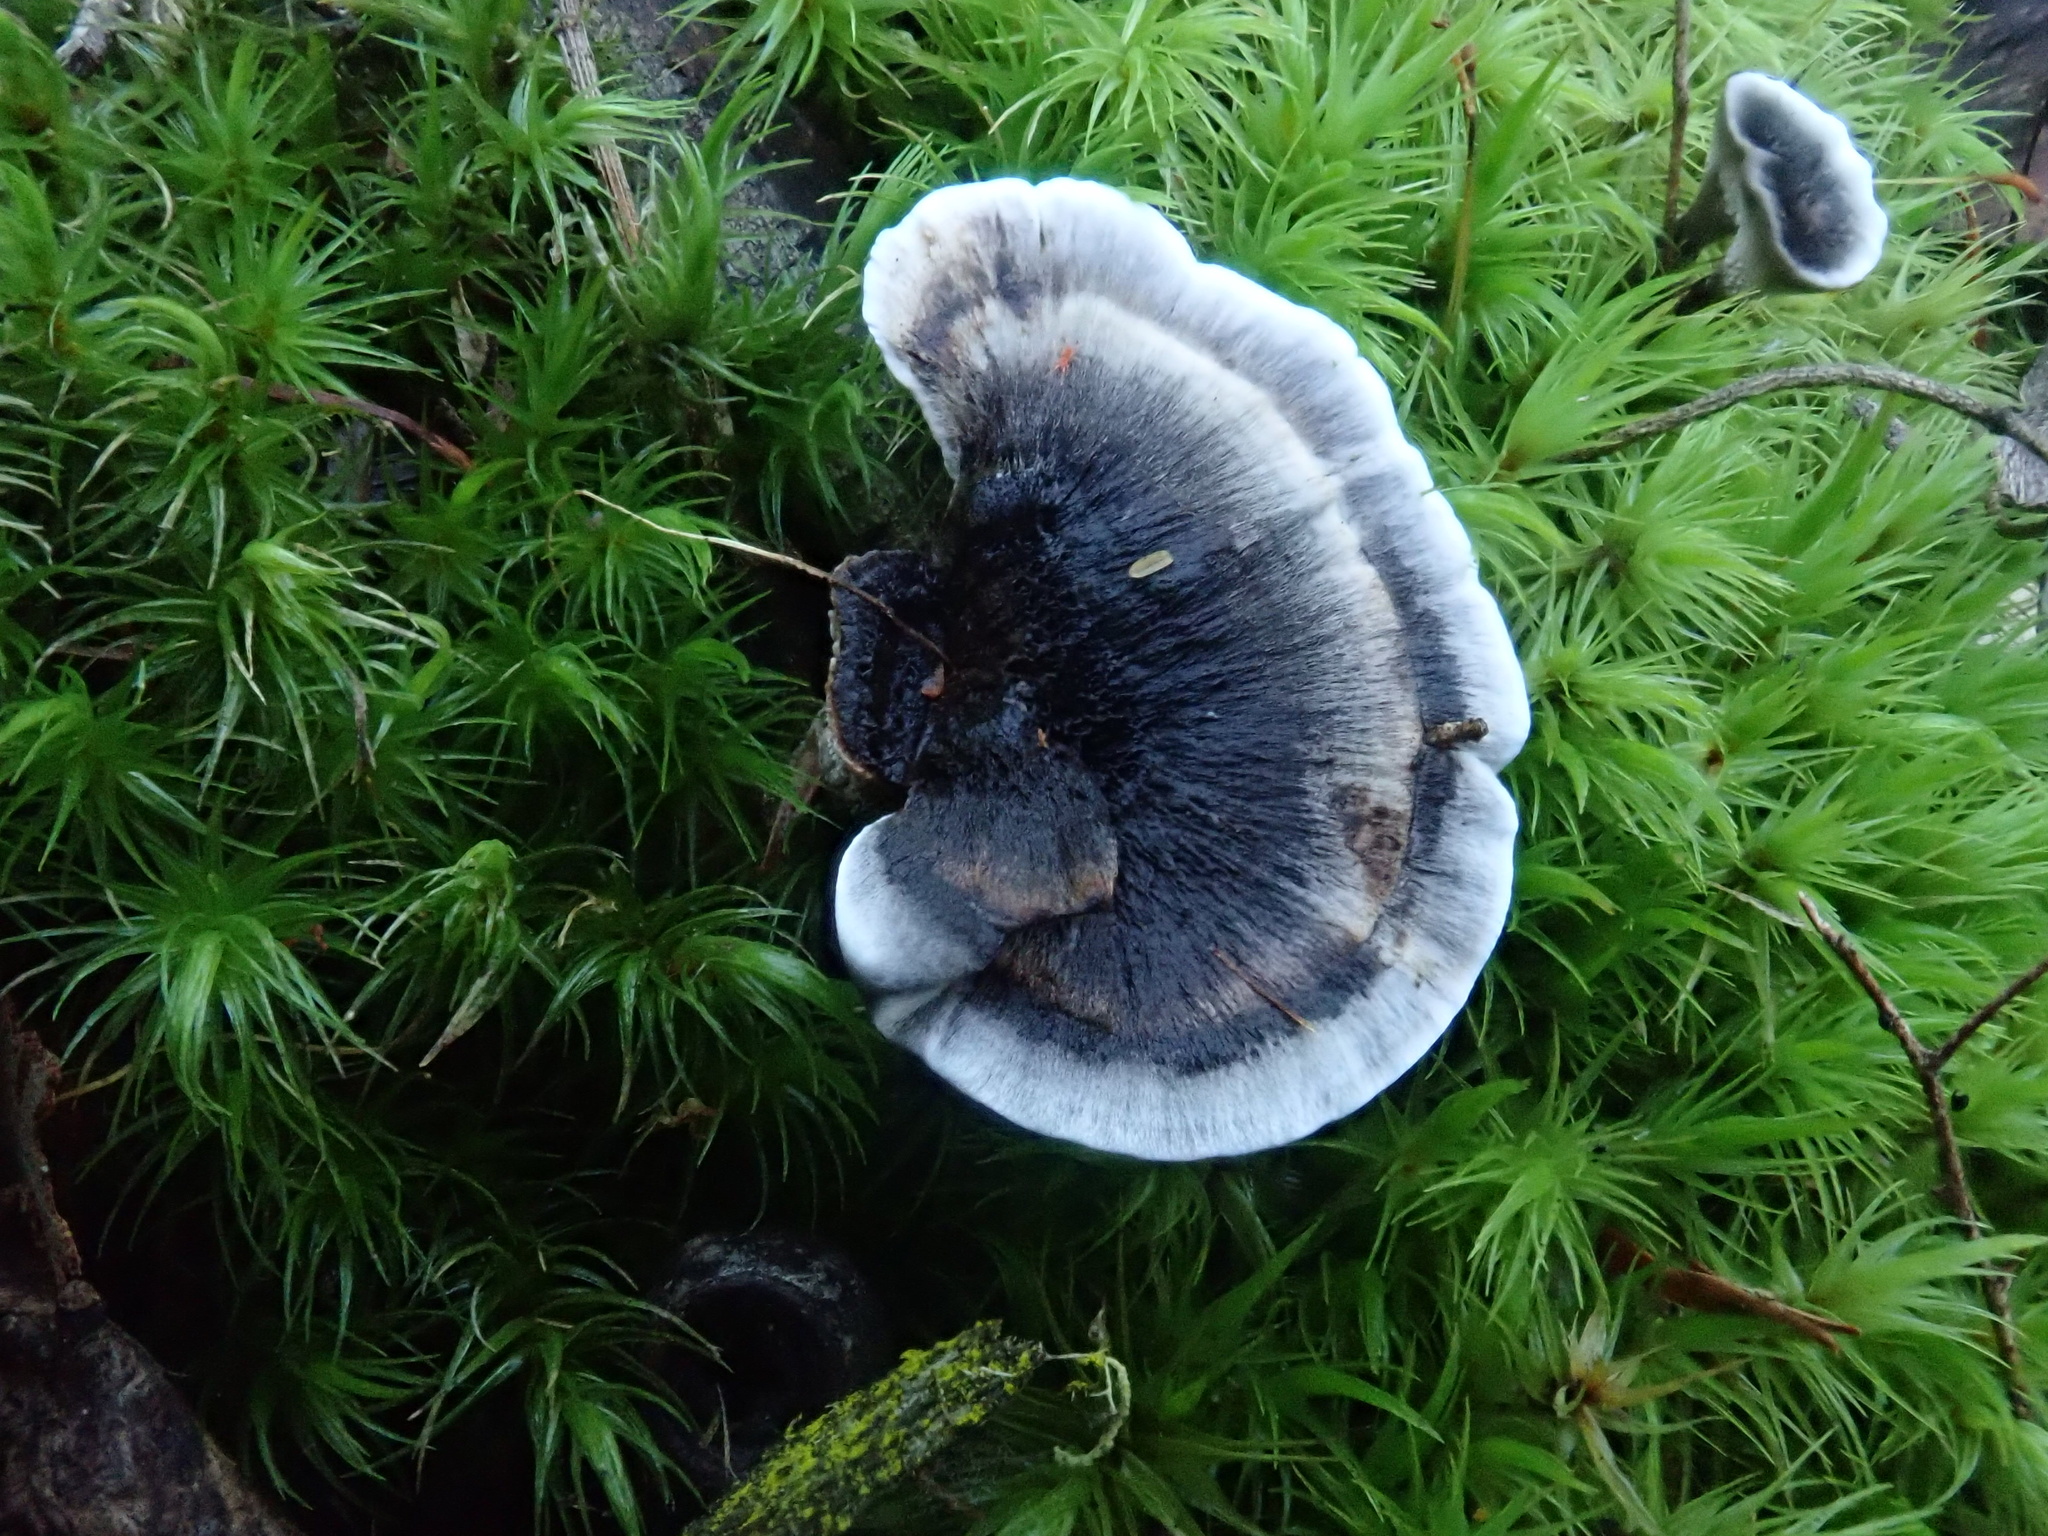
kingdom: Fungi
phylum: Basidiomycota
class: Agaricomycetes
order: Thelephorales
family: Thelephoraceae
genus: Phellodon
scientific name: Phellodon niger
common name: Black tooth
